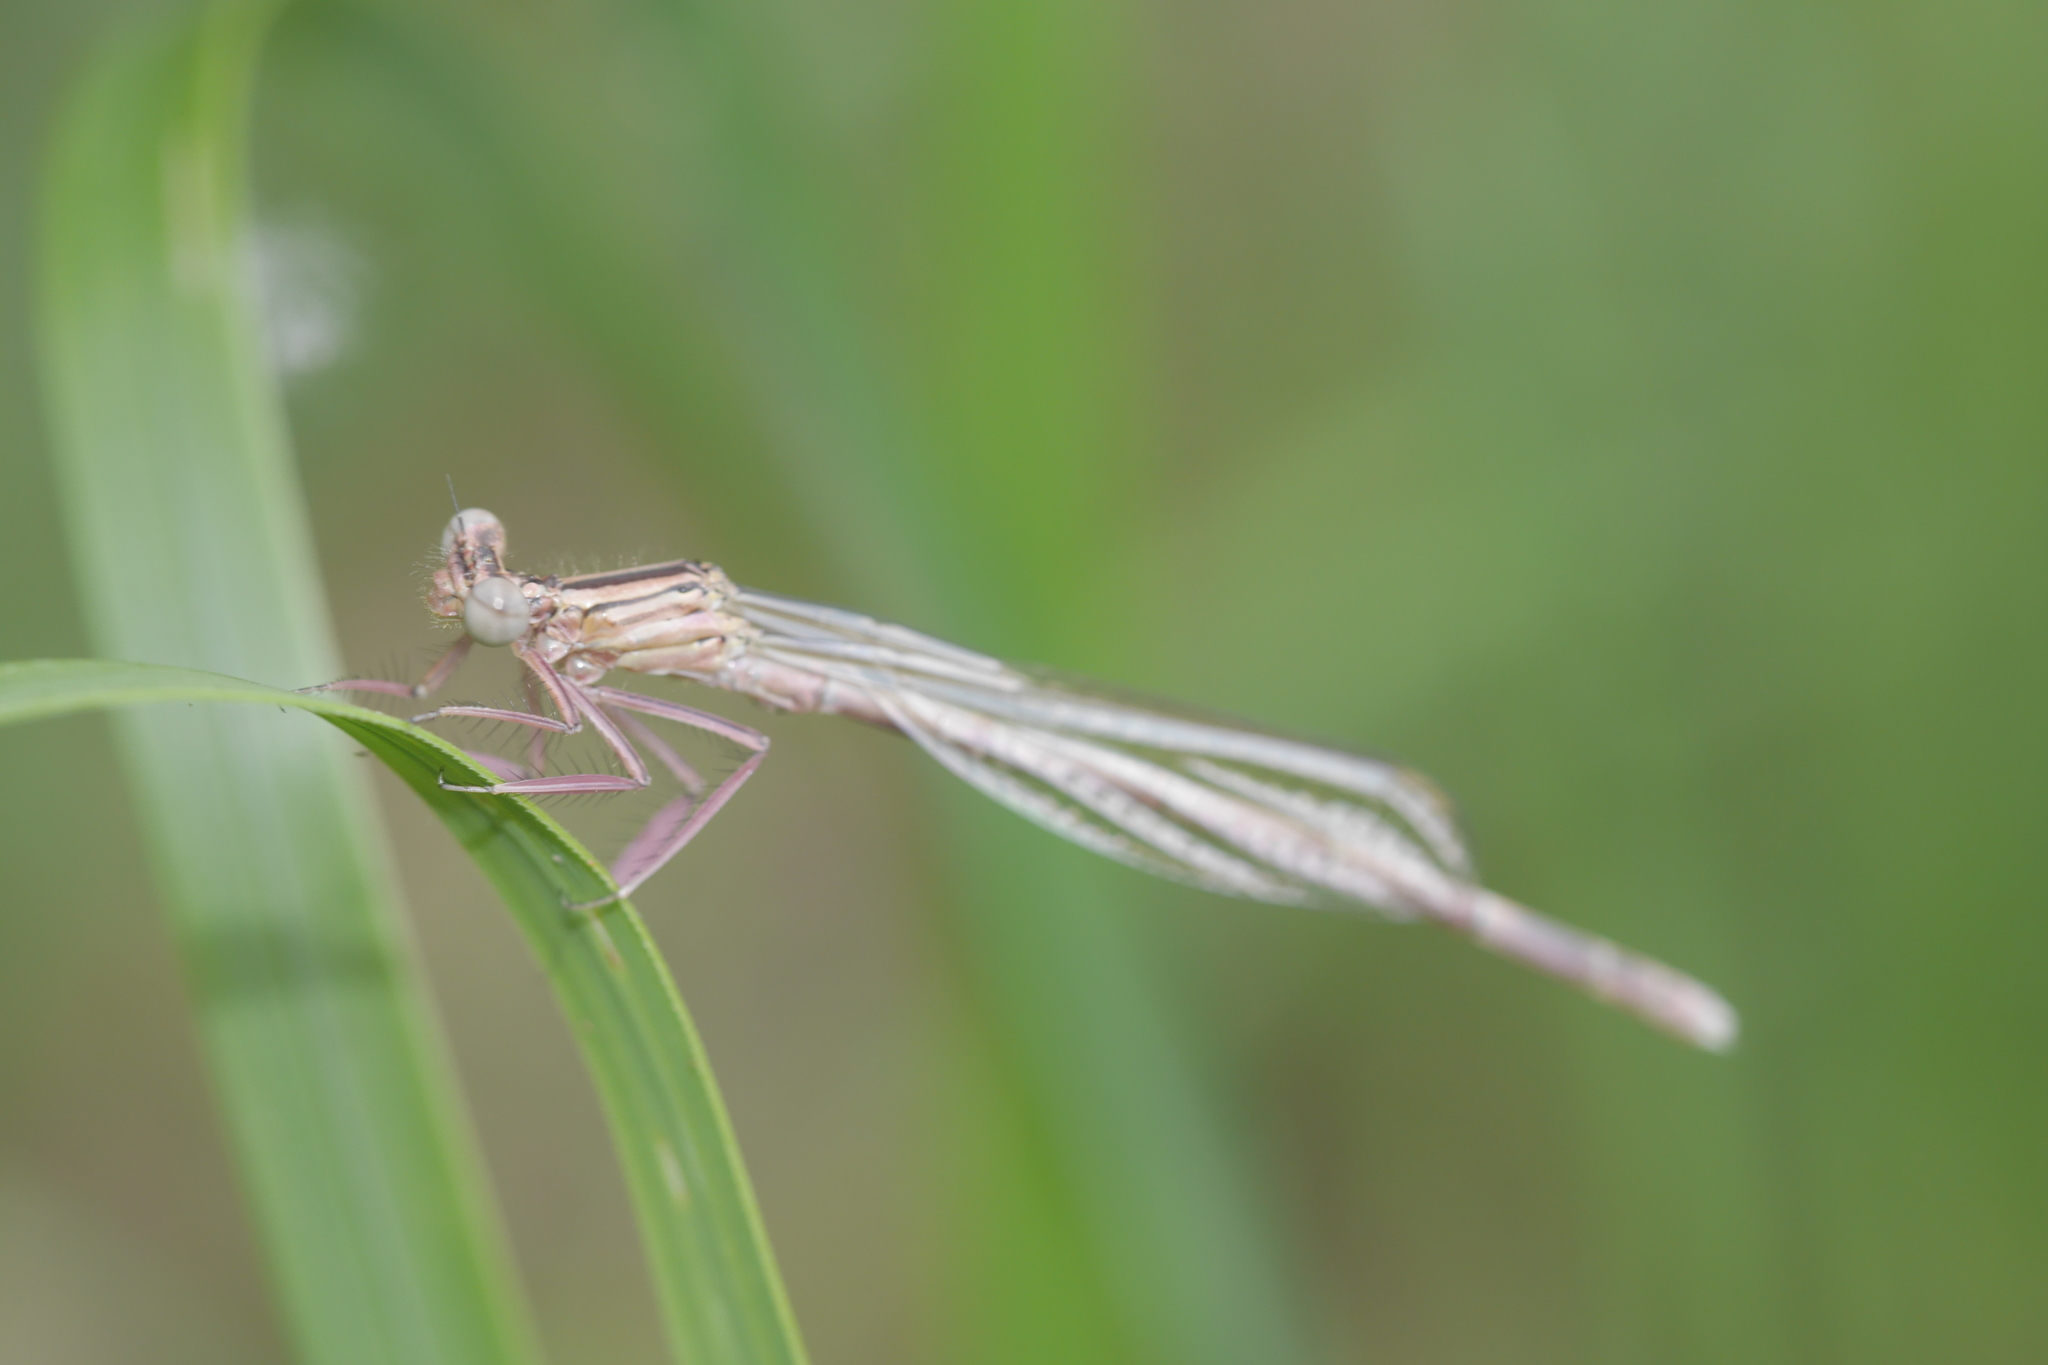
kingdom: Animalia
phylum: Arthropoda
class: Insecta
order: Odonata
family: Platycnemididae
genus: Platycnemis
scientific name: Platycnemis pennipes
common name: White-legged damselfly
